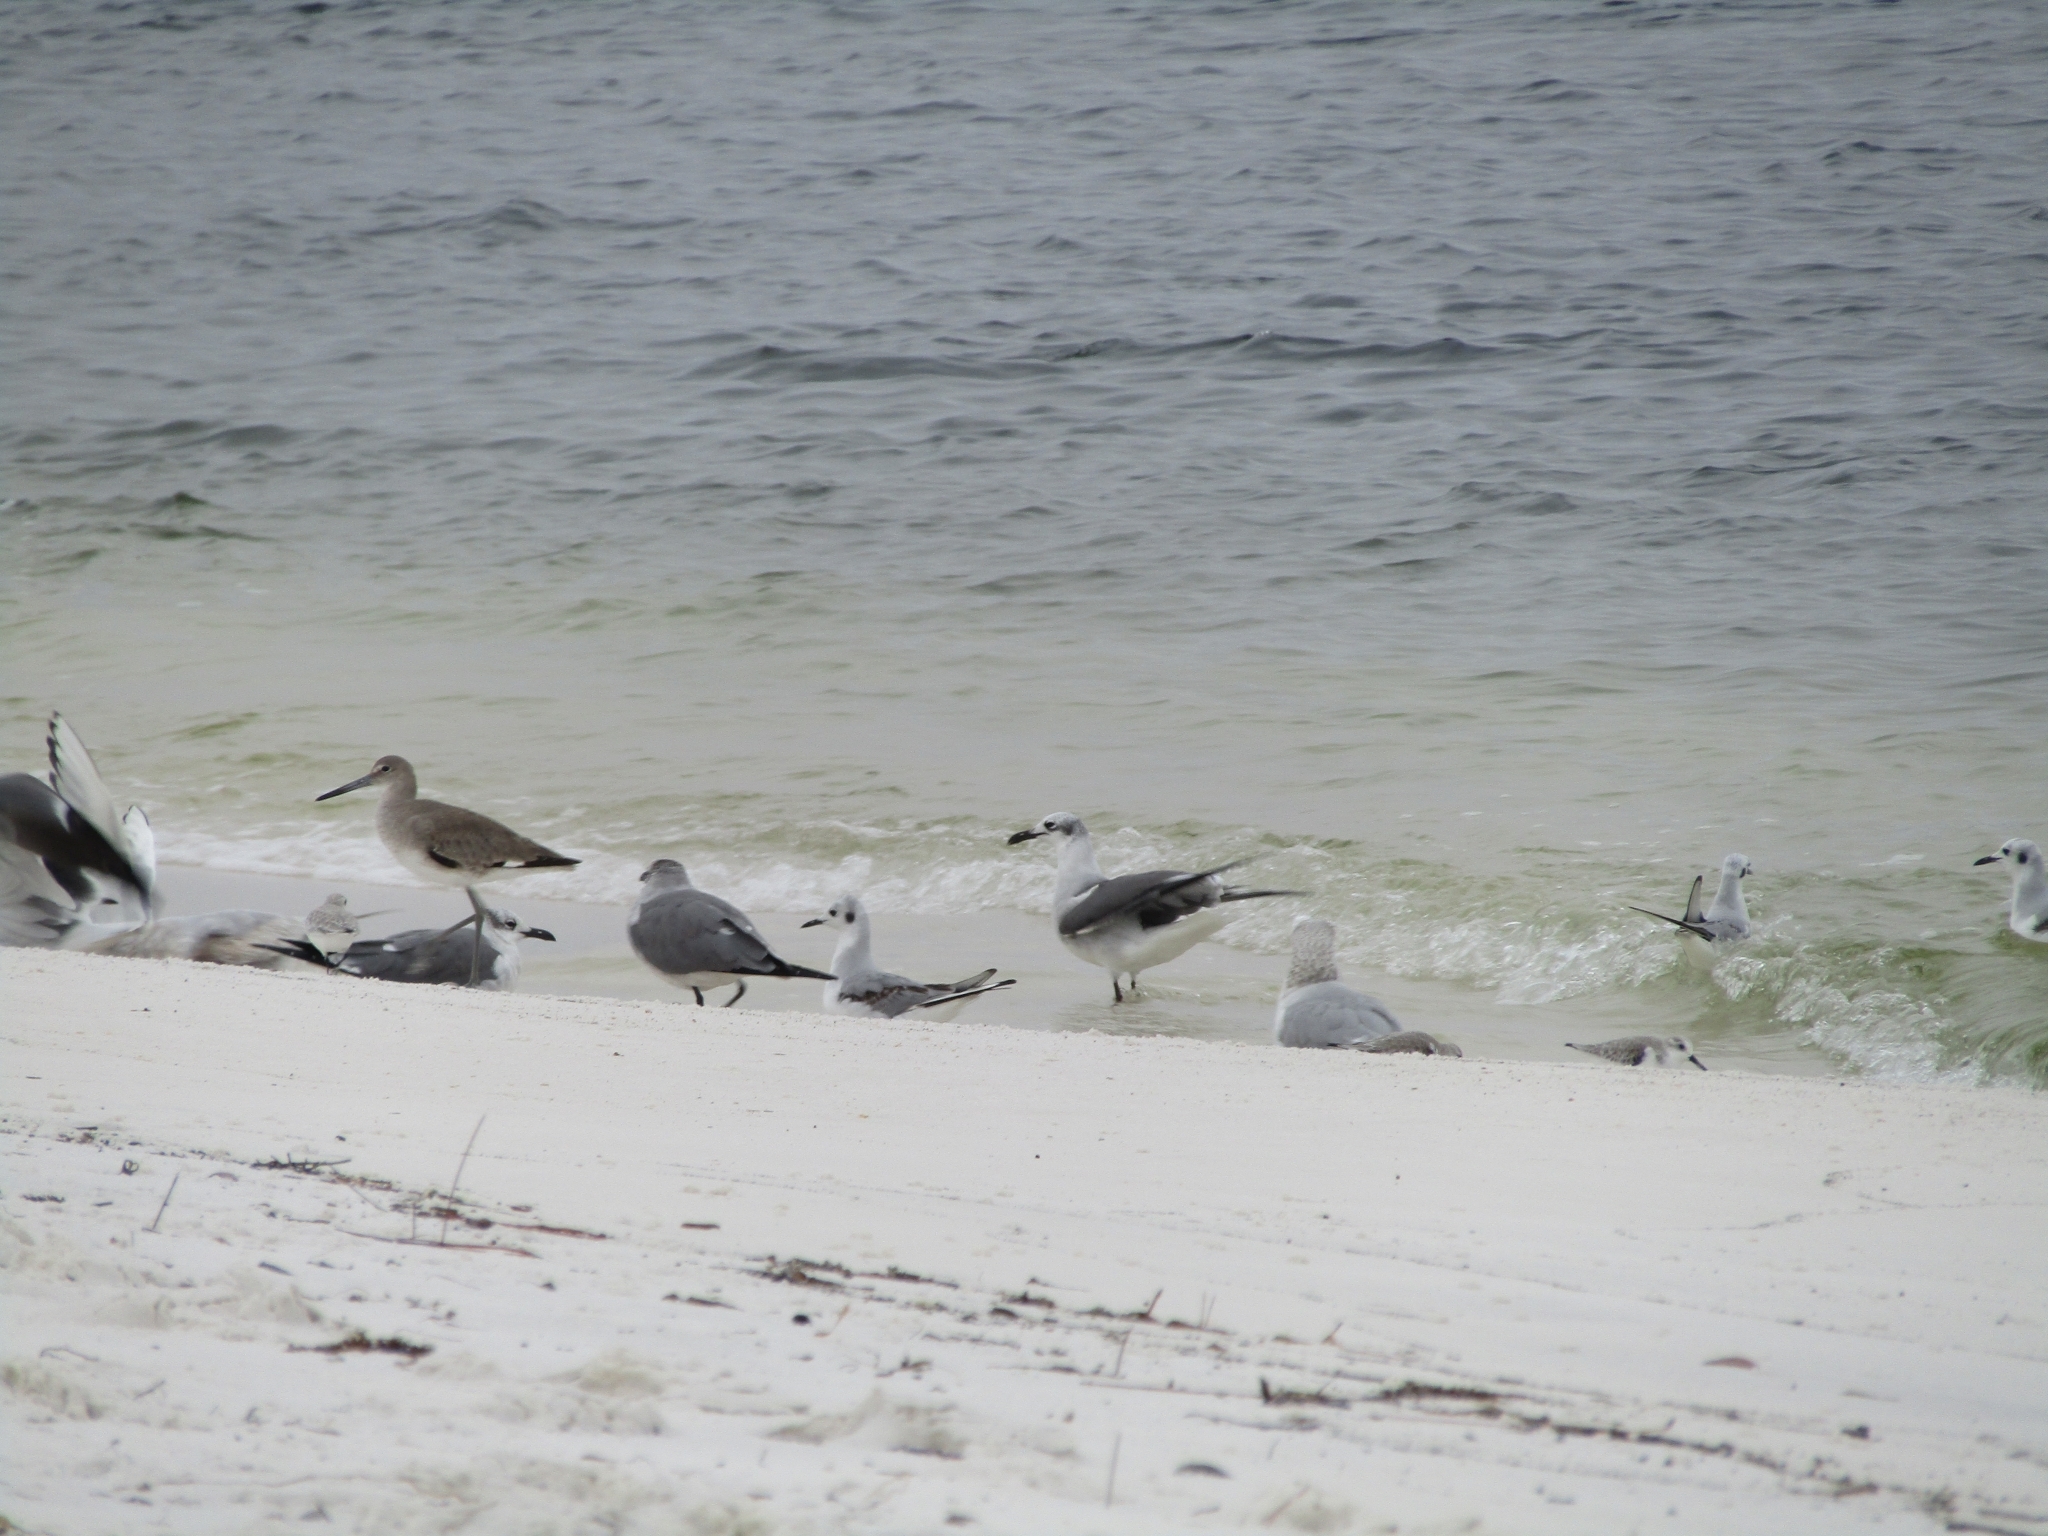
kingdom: Animalia
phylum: Chordata
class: Aves
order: Charadriiformes
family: Scolopacidae
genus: Tringa
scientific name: Tringa semipalmata
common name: Willet
